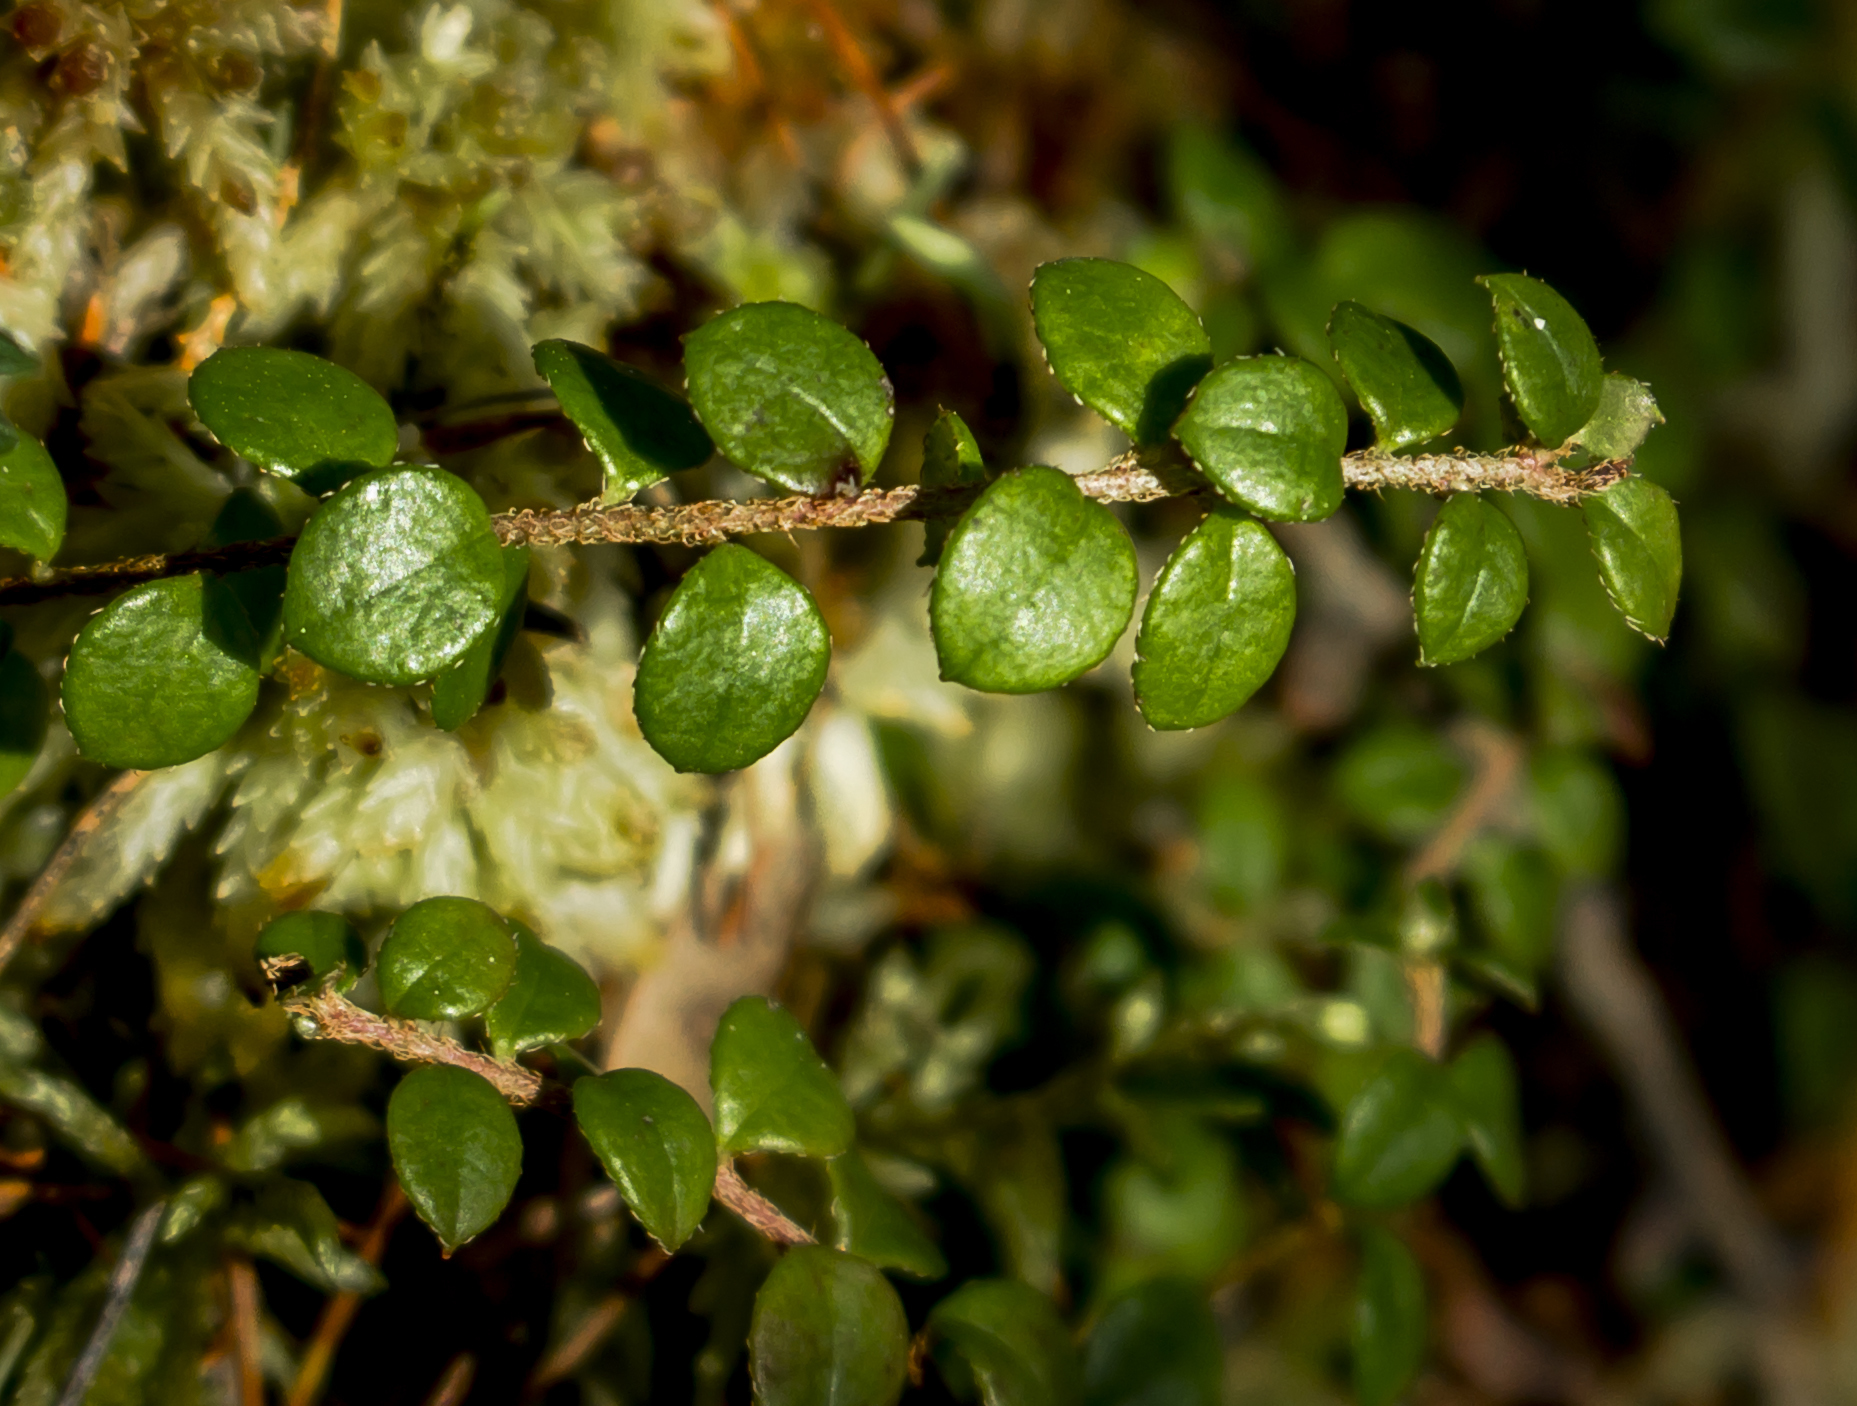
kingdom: Plantae
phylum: Tracheophyta
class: Magnoliopsida
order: Ericales
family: Ericaceae
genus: Gaultheria
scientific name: Gaultheria hispidula
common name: Cancer wintergreen
